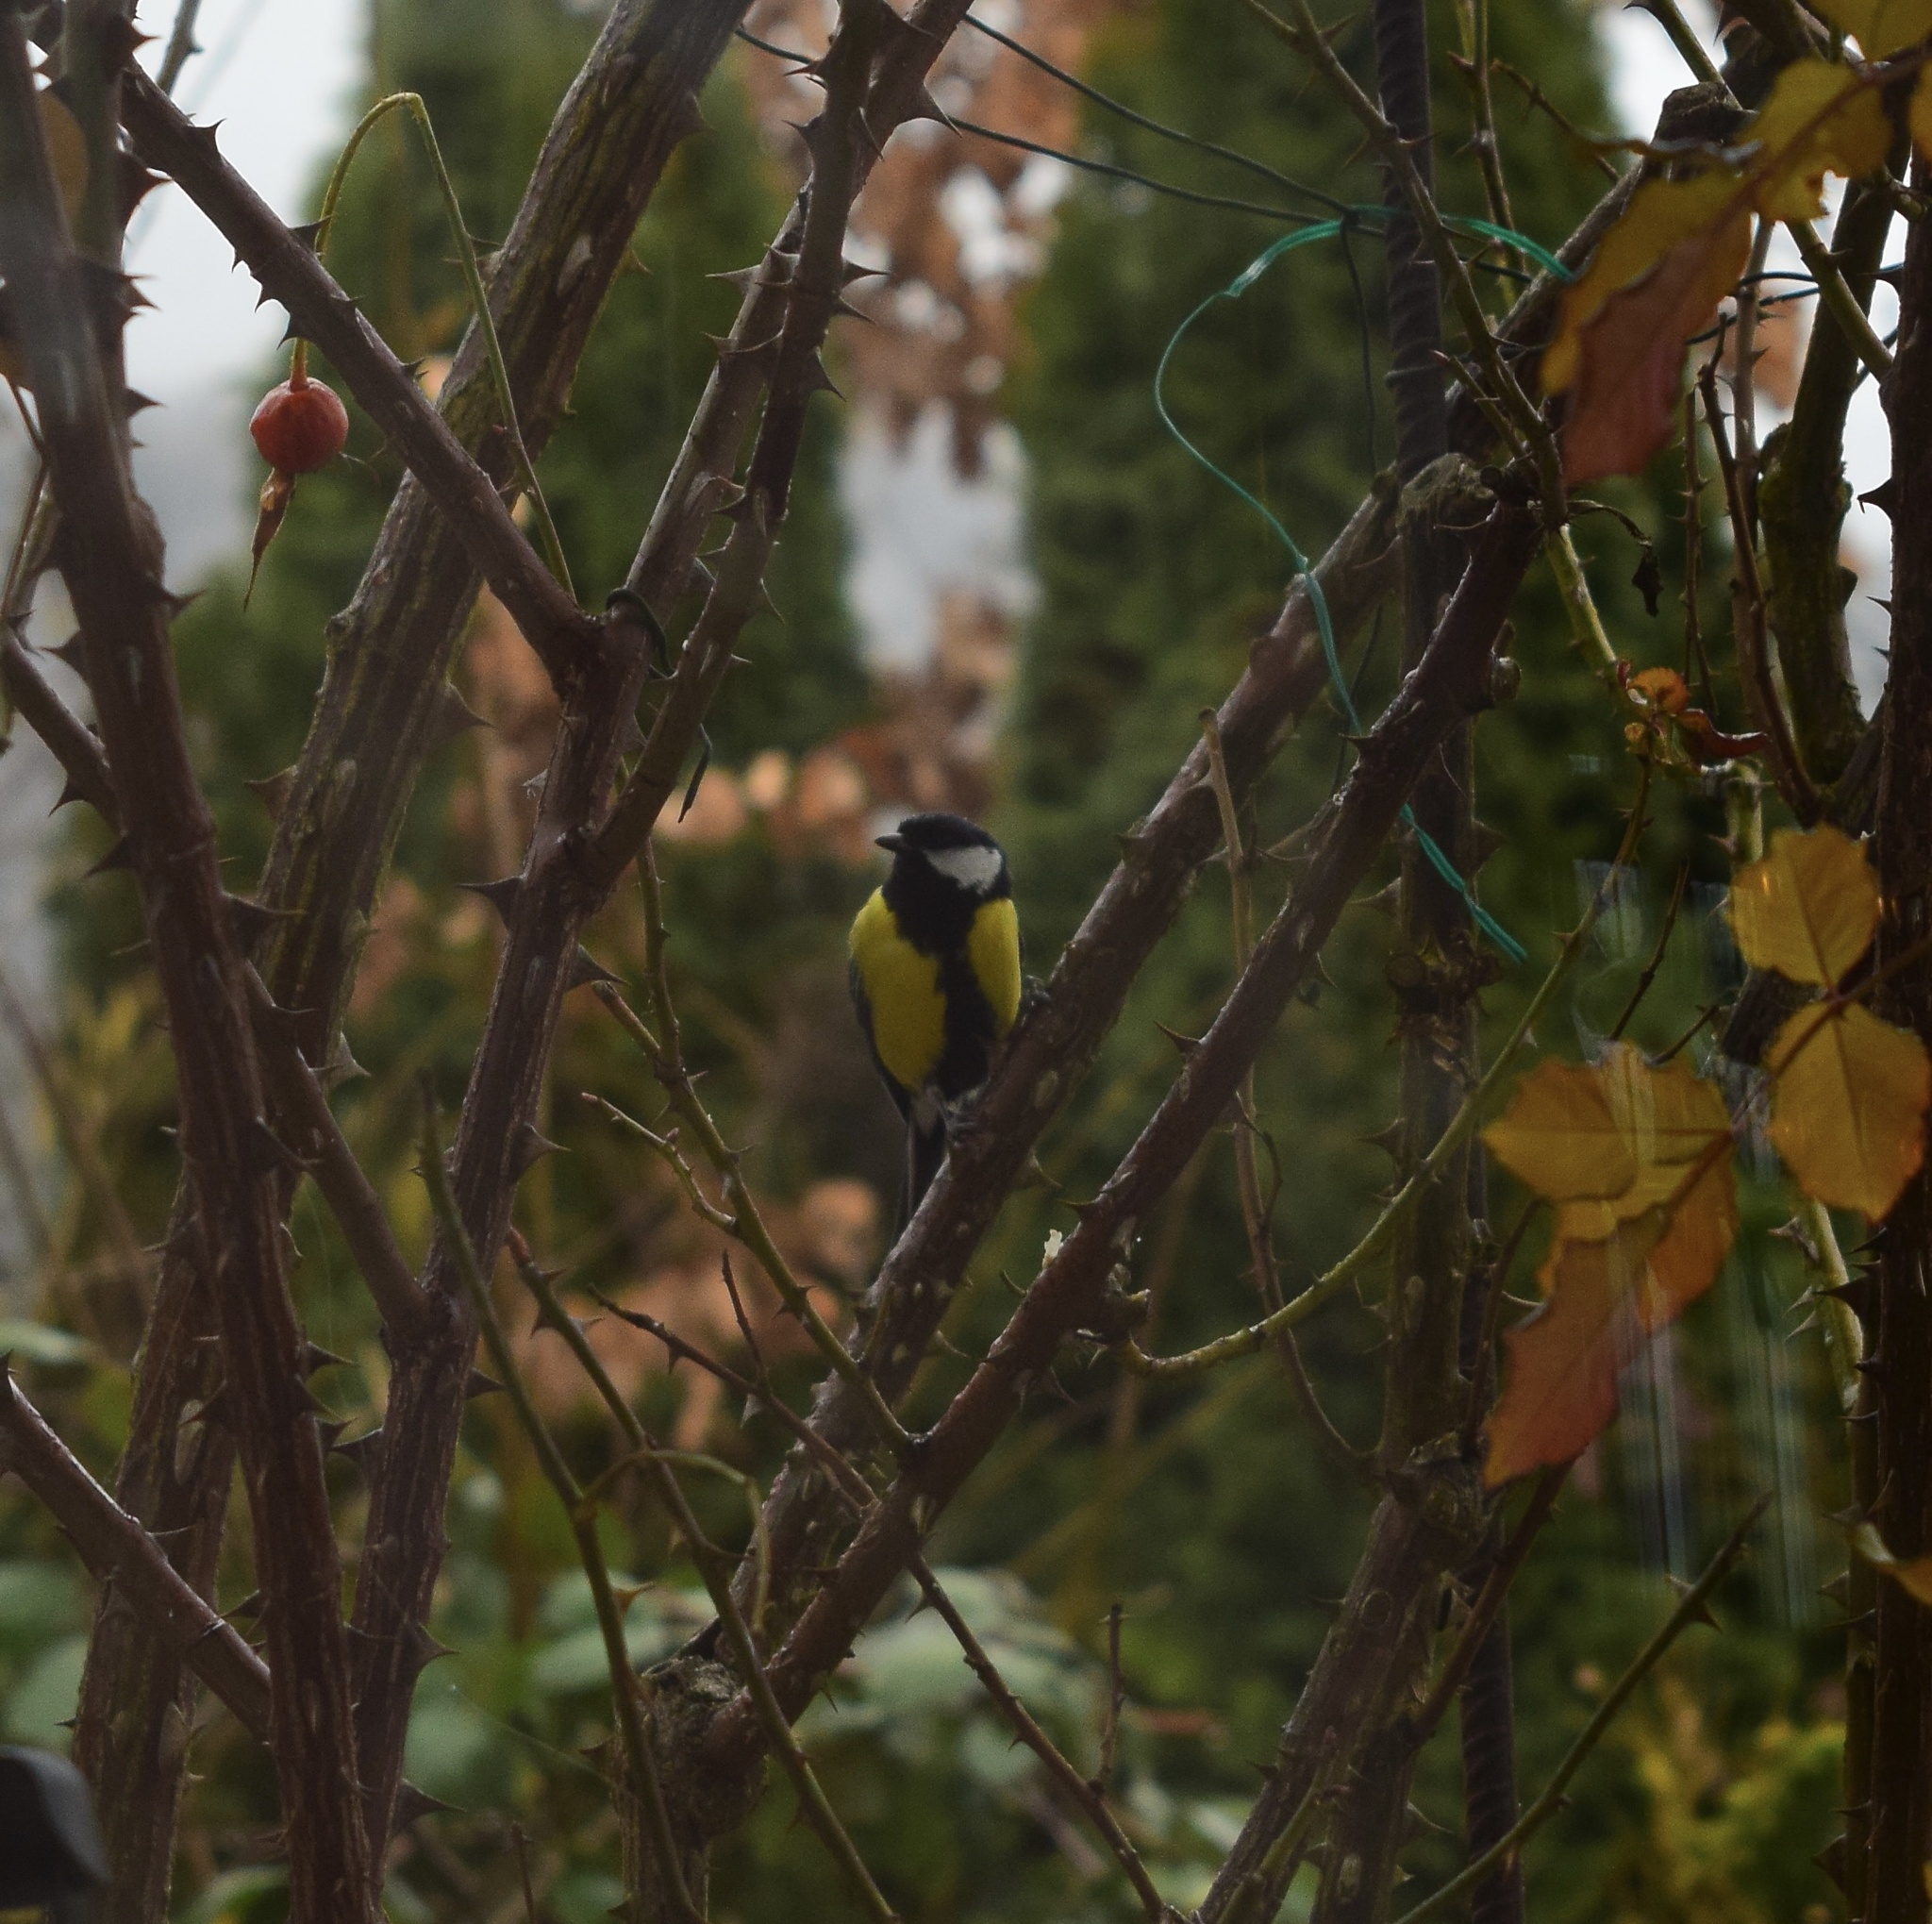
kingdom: Animalia
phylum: Chordata
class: Aves
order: Passeriformes
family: Paridae
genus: Parus
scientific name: Parus major
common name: Great tit
